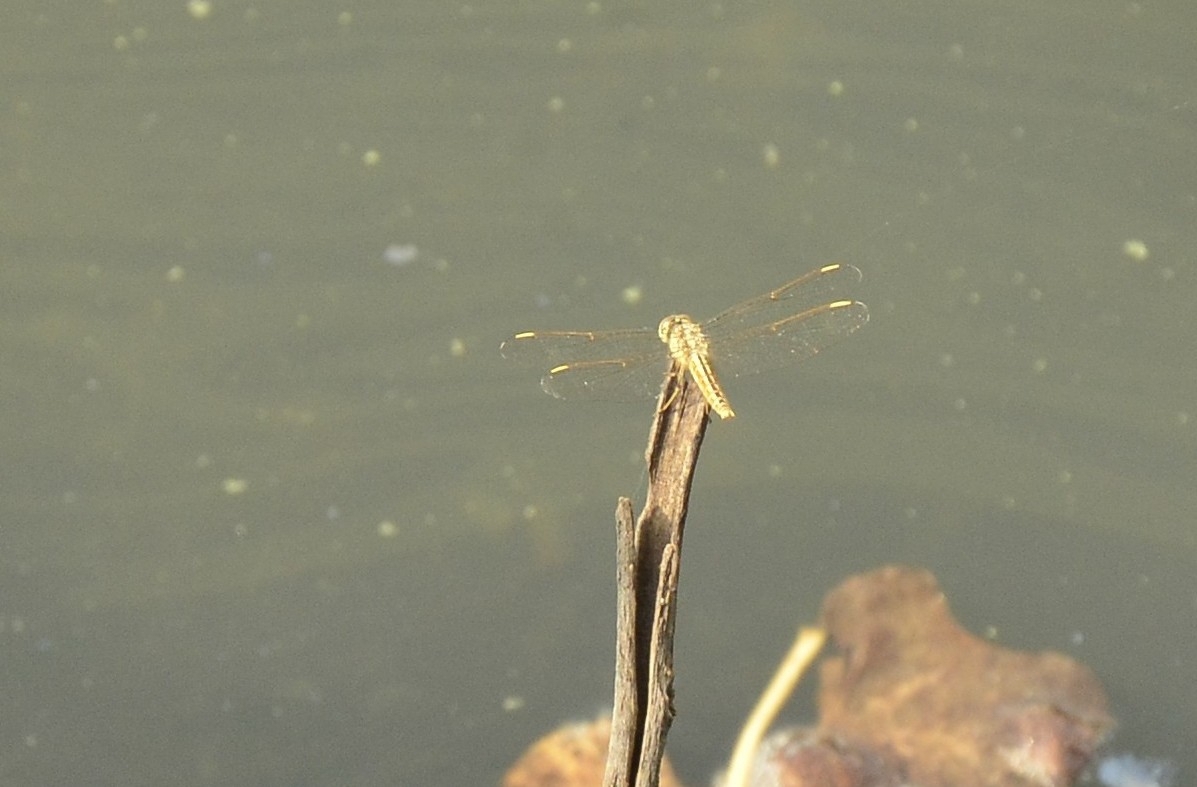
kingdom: Animalia
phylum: Arthropoda
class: Insecta
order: Odonata
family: Libellulidae
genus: Brachythemis
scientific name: Brachythemis contaminata
